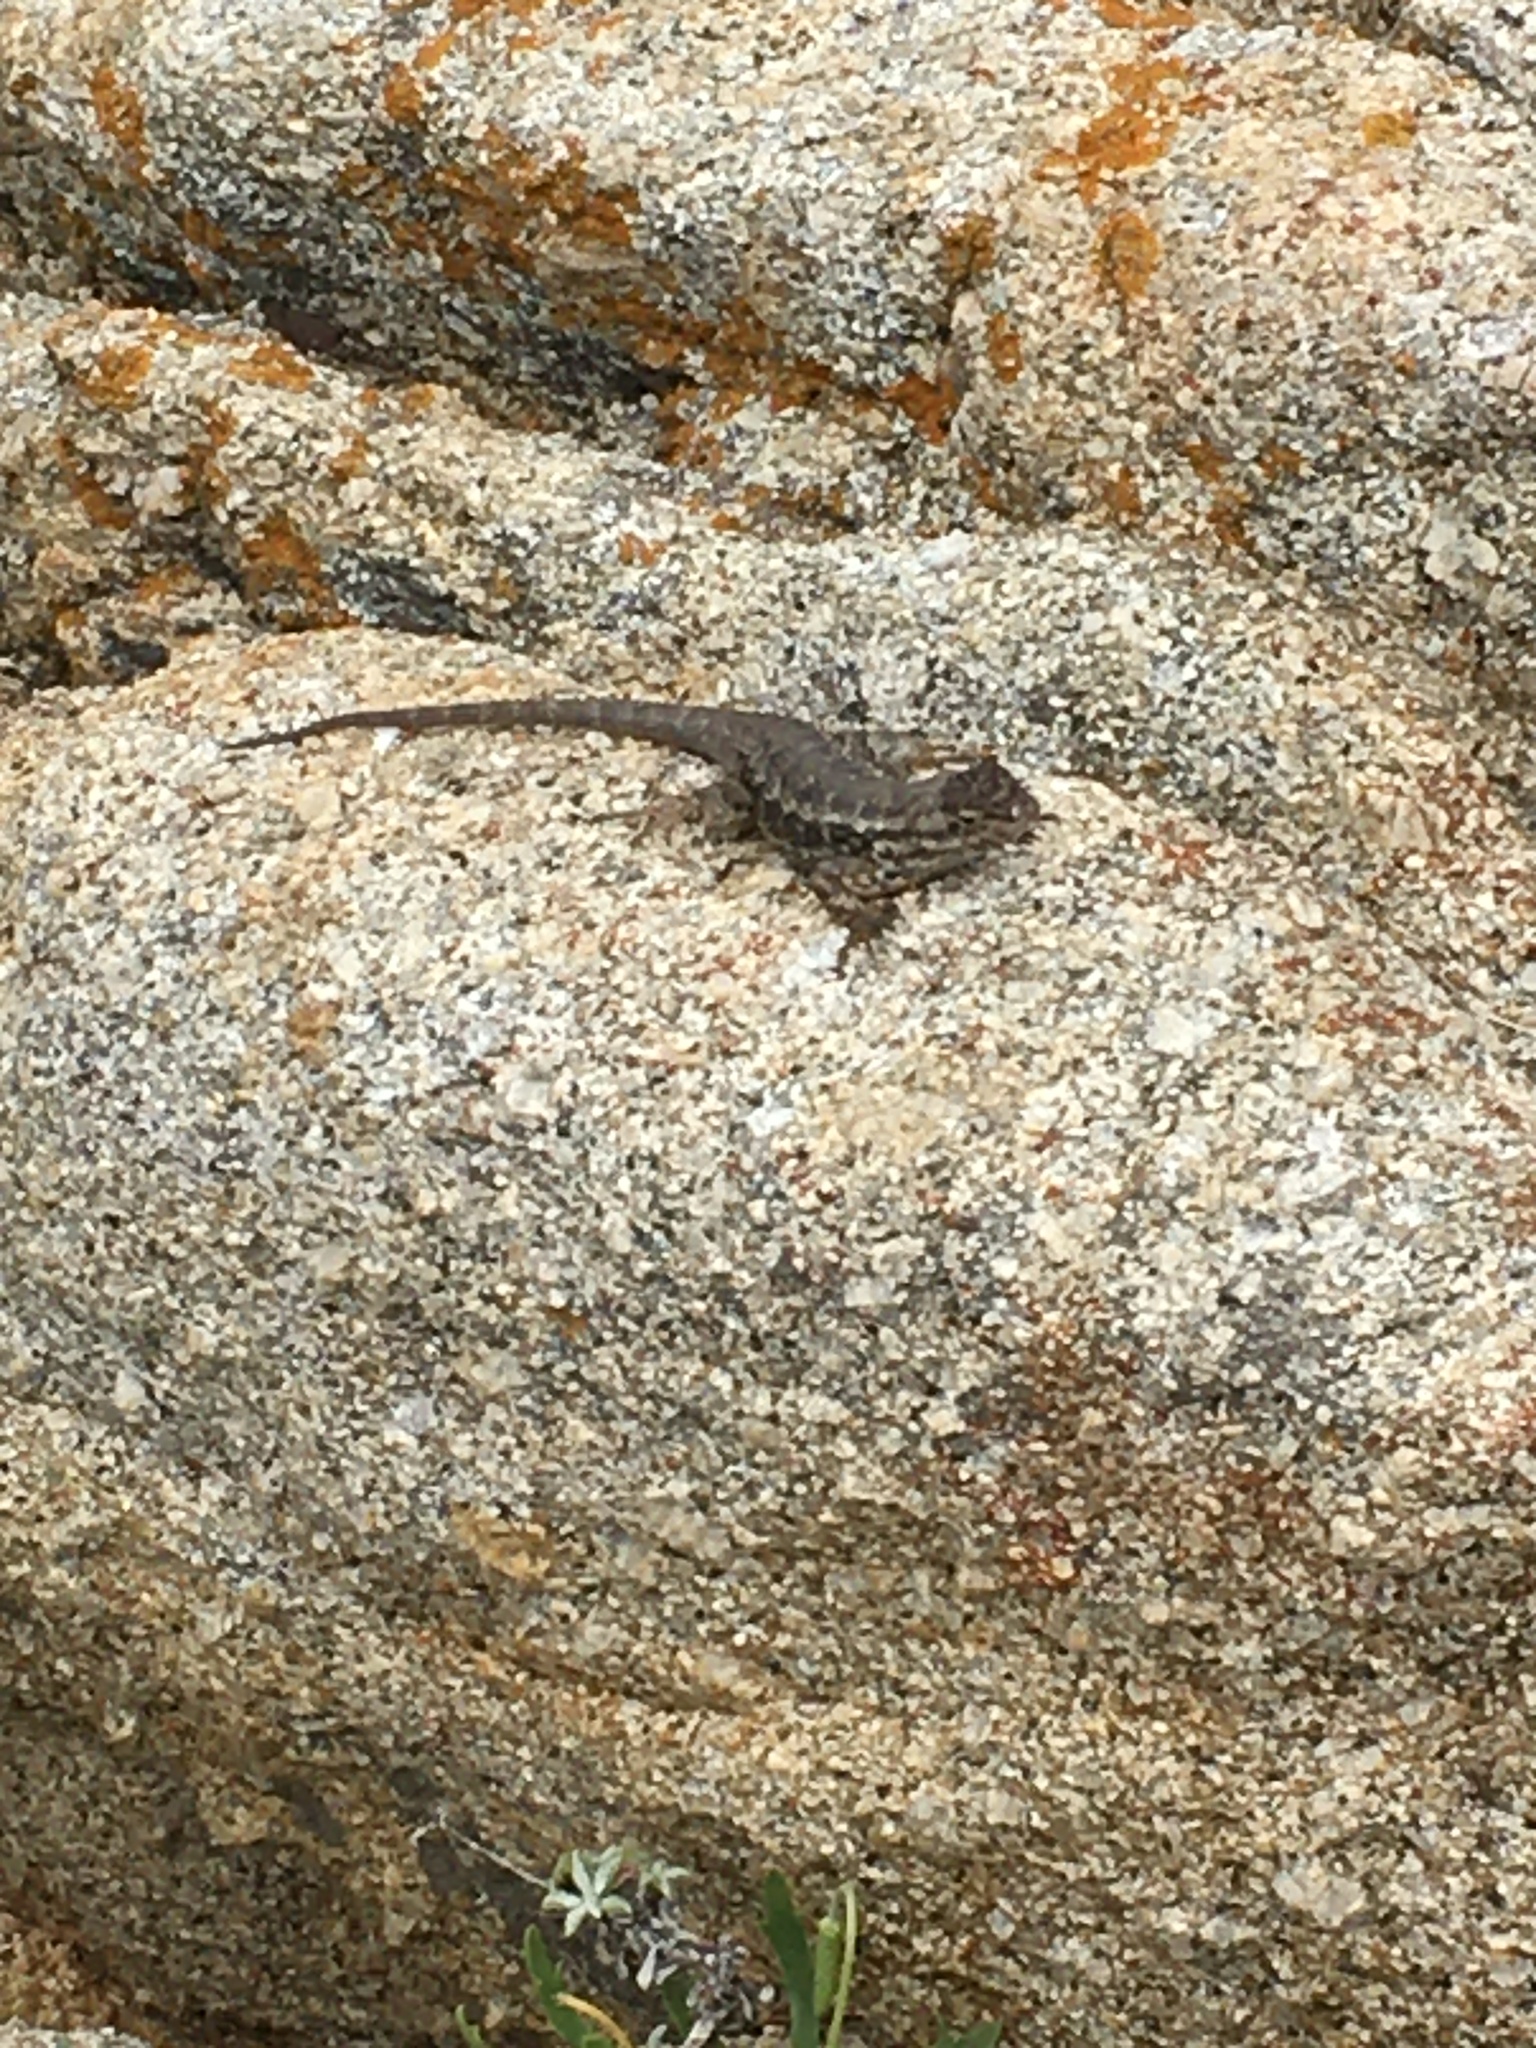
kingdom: Animalia
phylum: Chordata
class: Squamata
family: Phrynosomatidae
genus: Sceloporus
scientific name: Sceloporus occidentalis
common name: Western fence lizard
